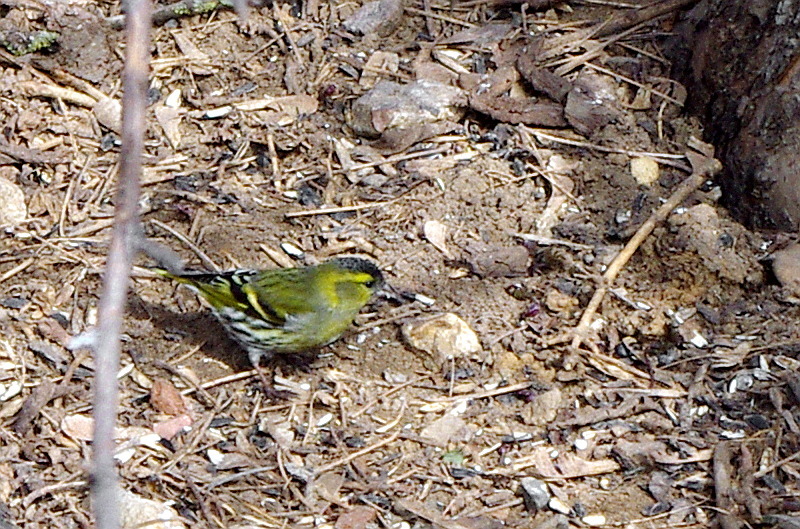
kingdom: Animalia
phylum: Chordata
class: Aves
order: Passeriformes
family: Fringillidae
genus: Spinus
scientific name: Spinus spinus
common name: Eurasian siskin
